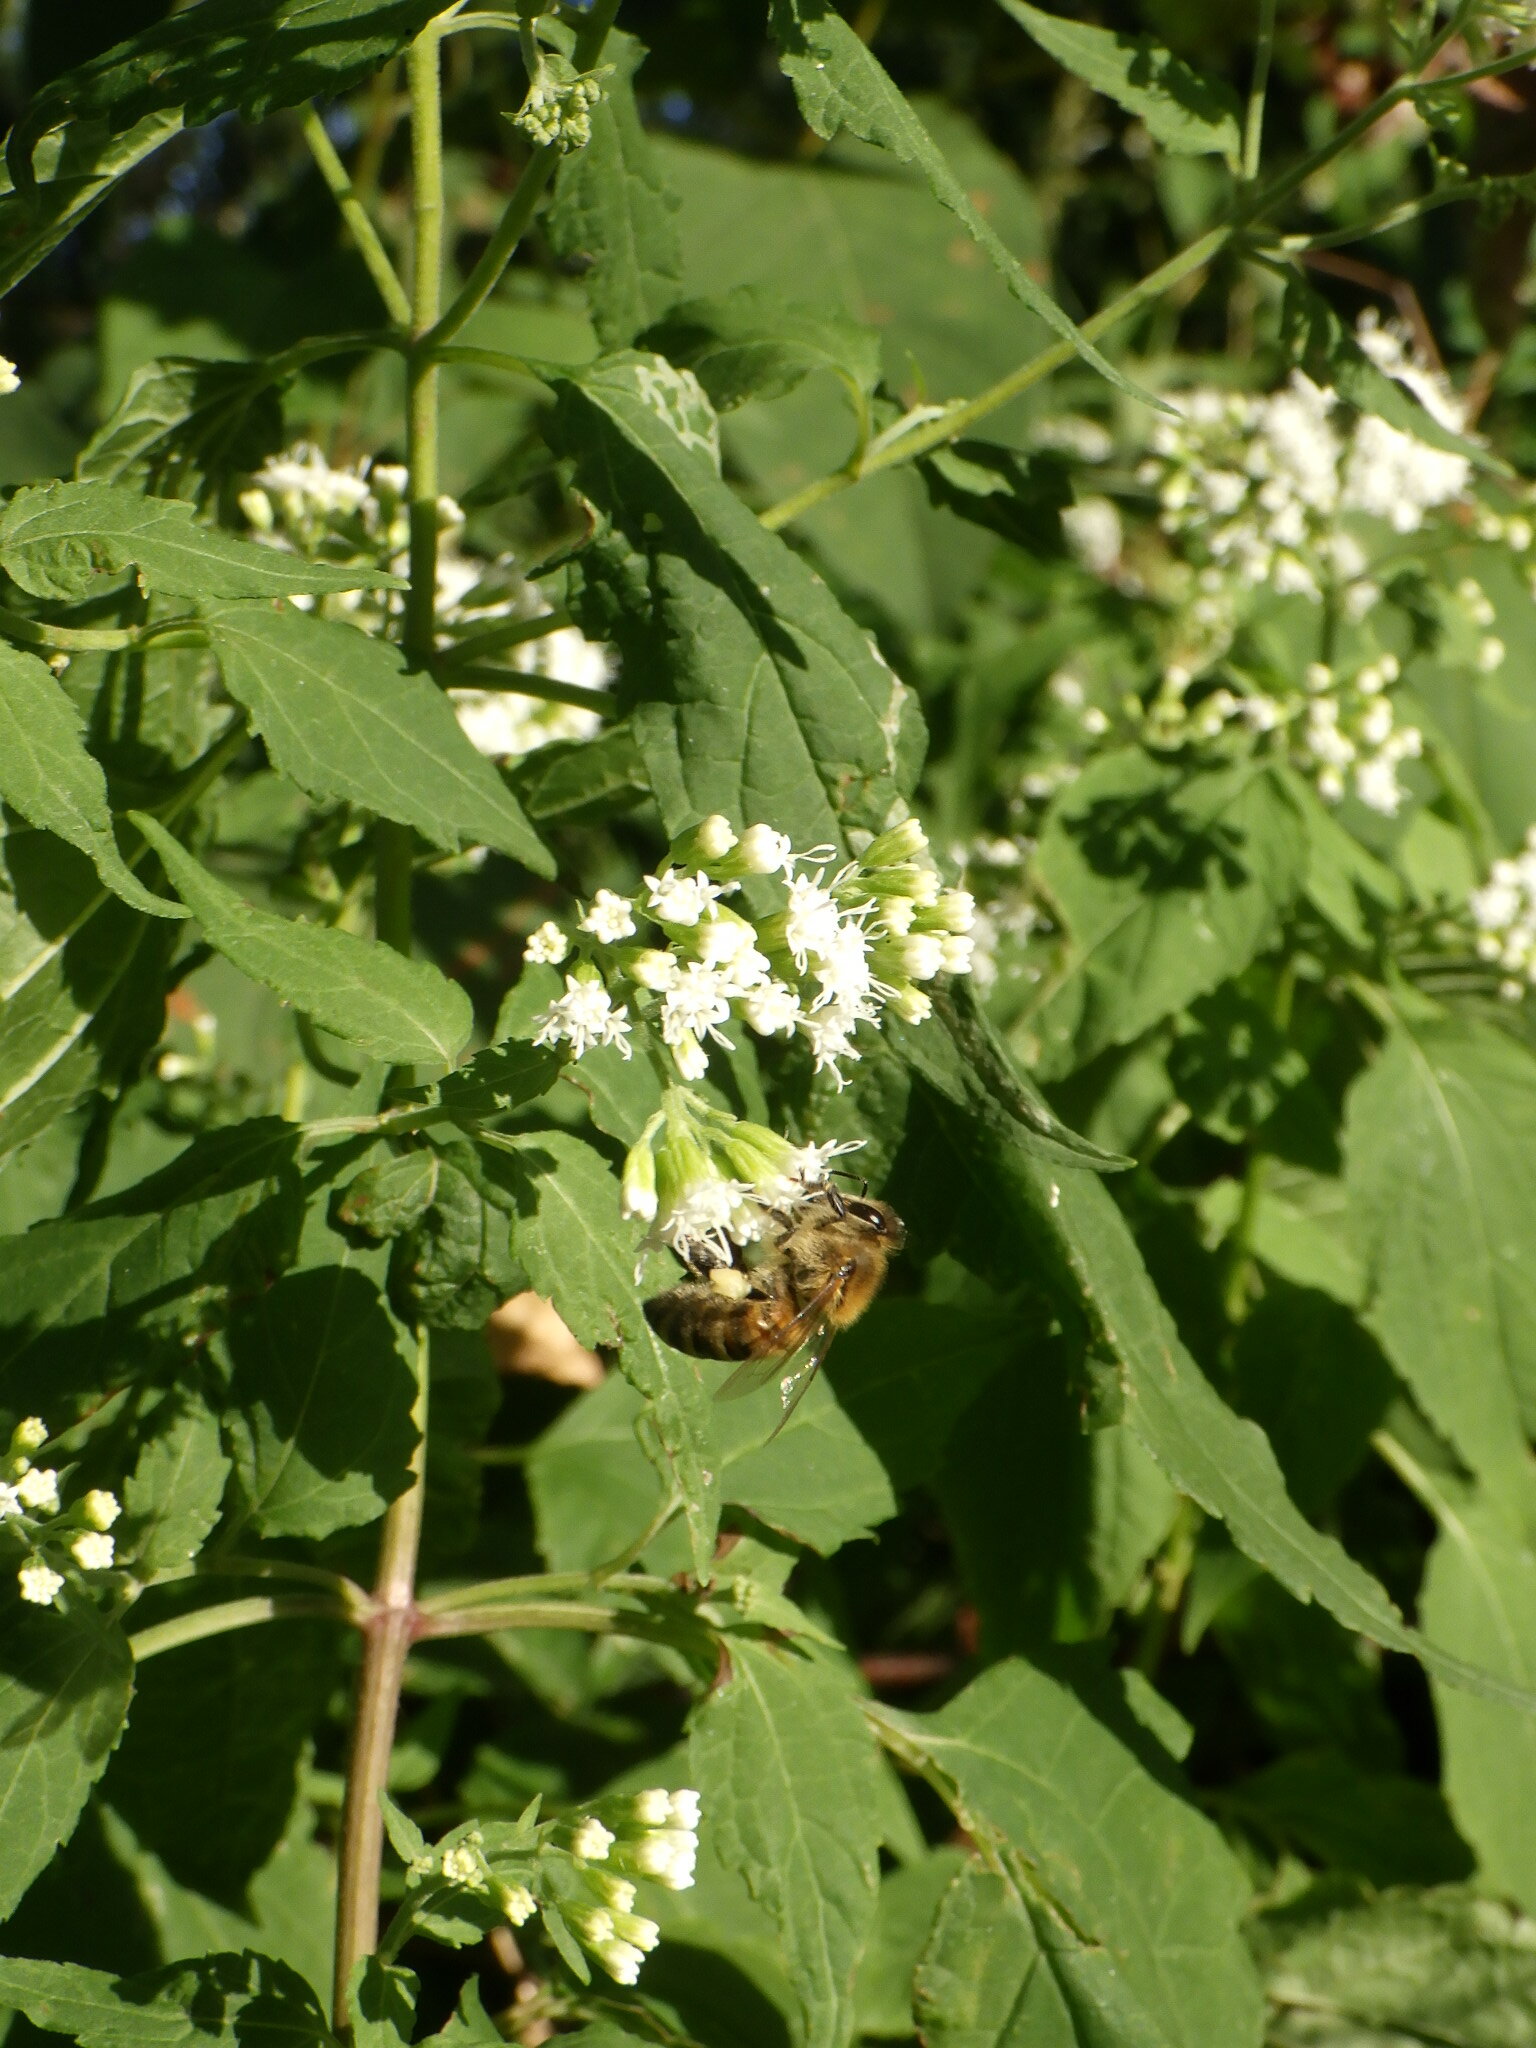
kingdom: Animalia
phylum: Arthropoda
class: Insecta
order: Hymenoptera
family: Apidae
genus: Apis
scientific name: Apis mellifera
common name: Honey bee
